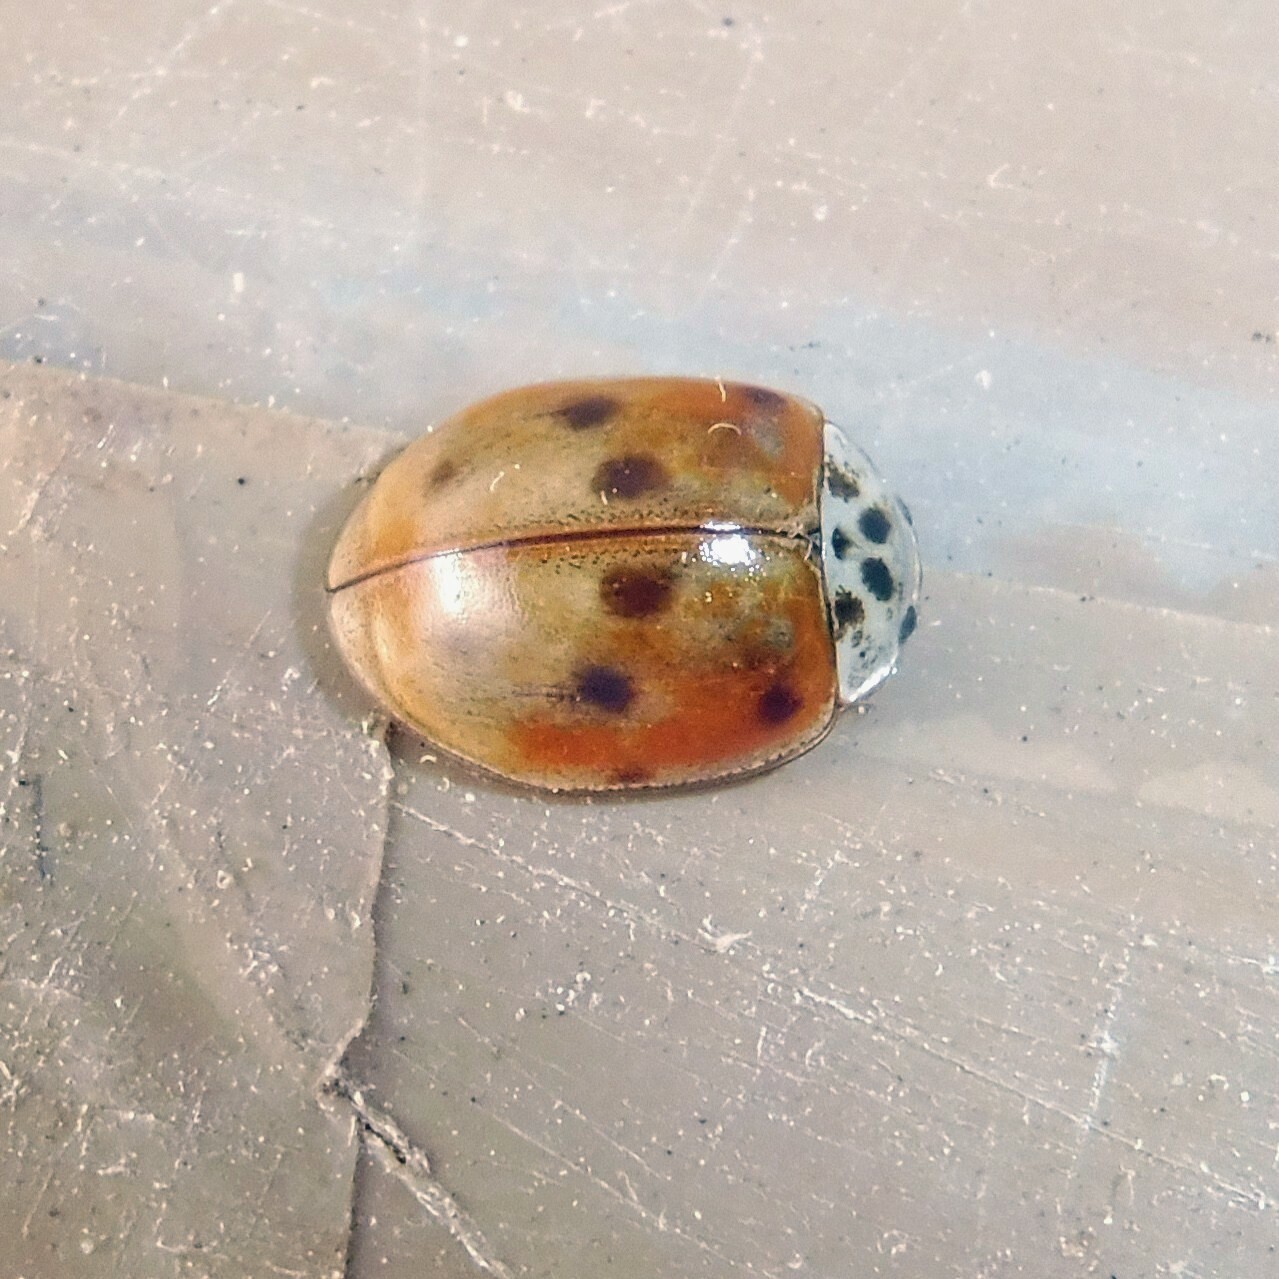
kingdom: Animalia
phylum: Arthropoda
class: Insecta
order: Coleoptera
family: Coccinellidae
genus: Adalia
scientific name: Adalia decempunctata
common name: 10-spot ladybird
